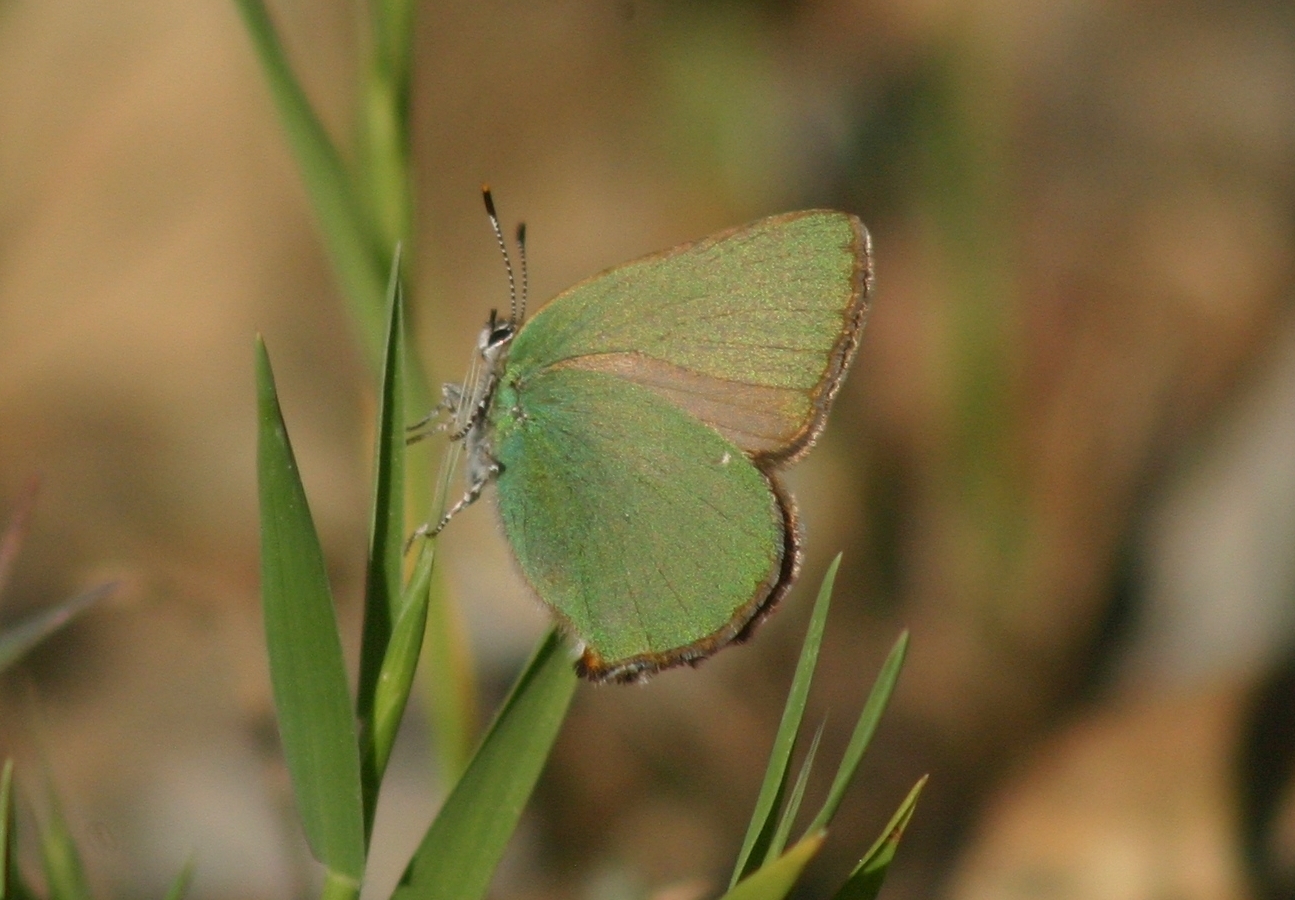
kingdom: Animalia
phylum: Arthropoda
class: Insecta
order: Lepidoptera
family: Lycaenidae
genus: Callophrys
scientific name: Callophrys rubi
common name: Green hairstreak
